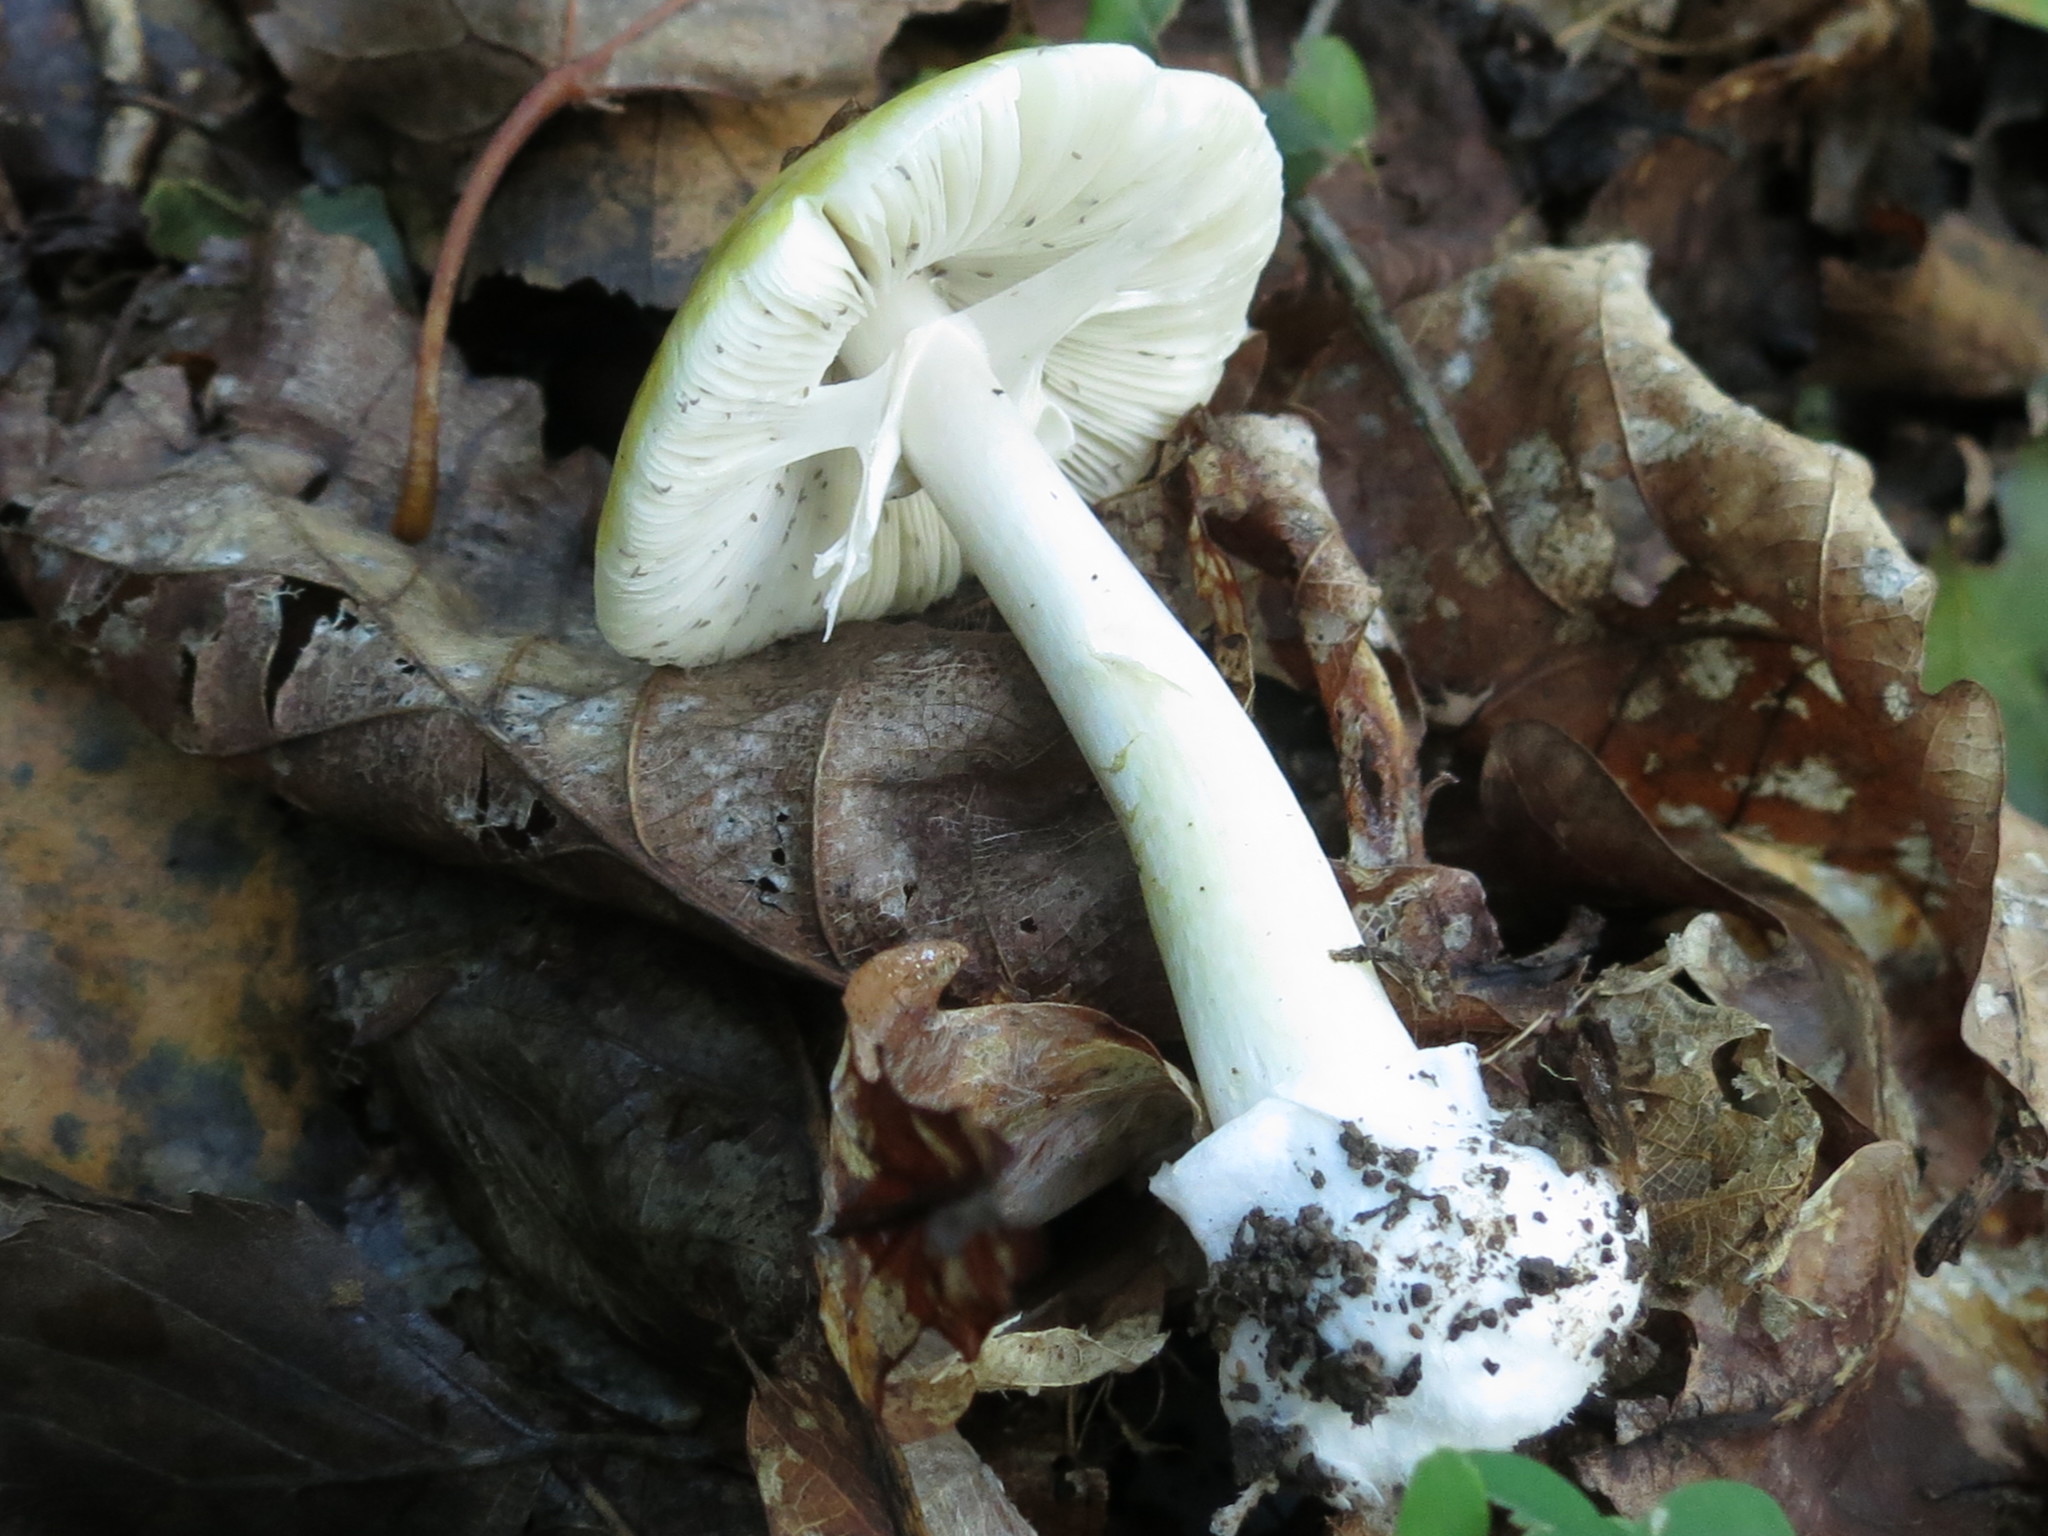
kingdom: Fungi
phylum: Basidiomycota
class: Agaricomycetes
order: Agaricales
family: Amanitaceae
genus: Amanita
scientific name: Amanita phalloides
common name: Death cap
